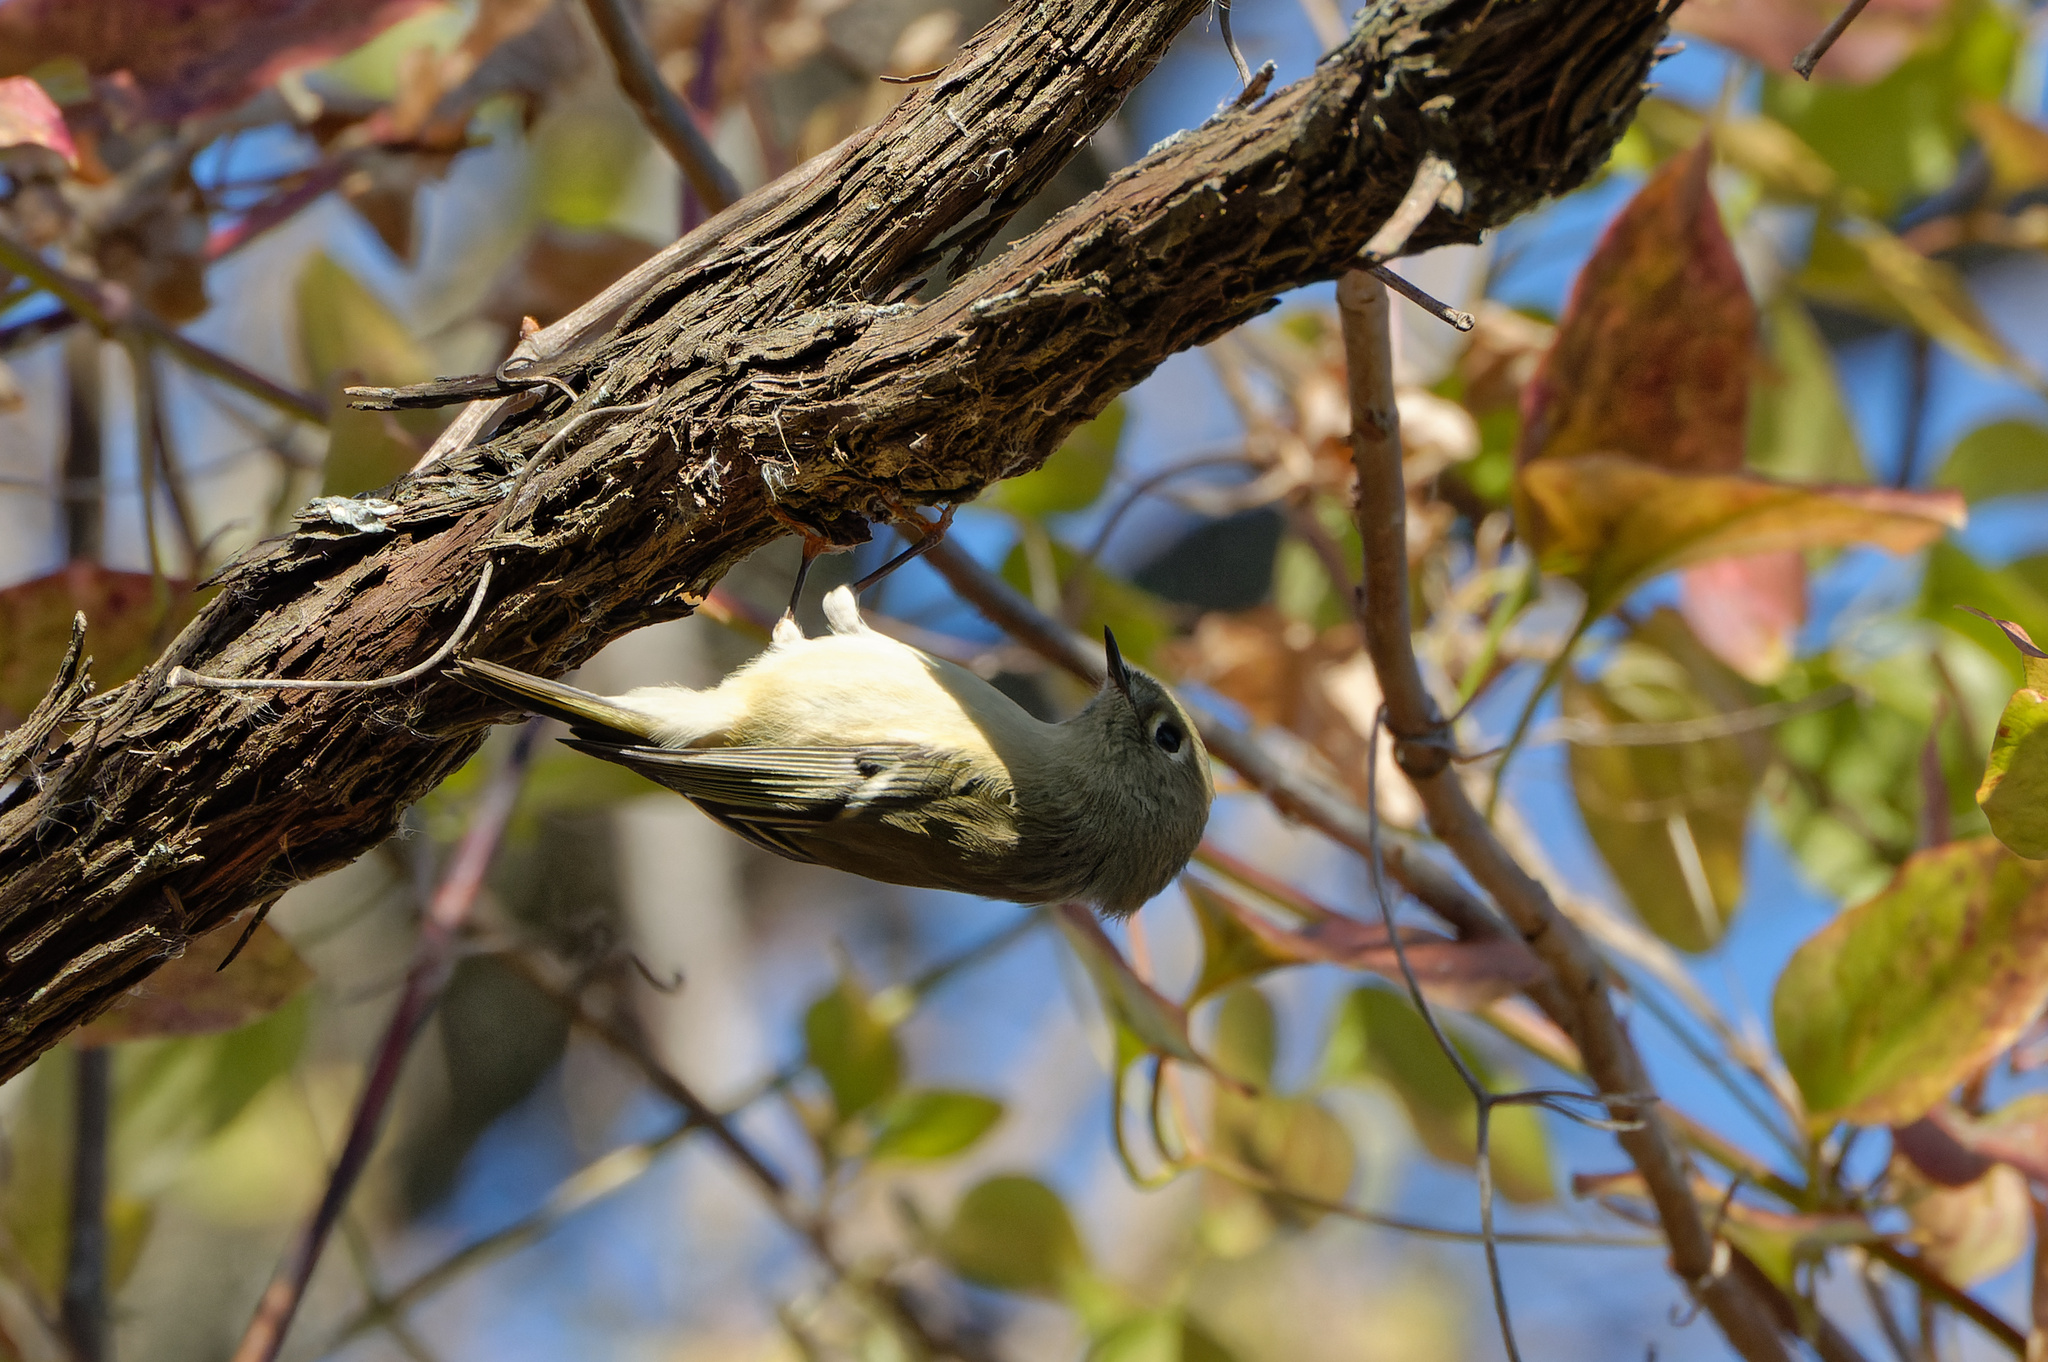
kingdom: Animalia
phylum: Chordata
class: Aves
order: Passeriformes
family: Regulidae
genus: Regulus
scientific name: Regulus calendula
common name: Ruby-crowned kinglet
